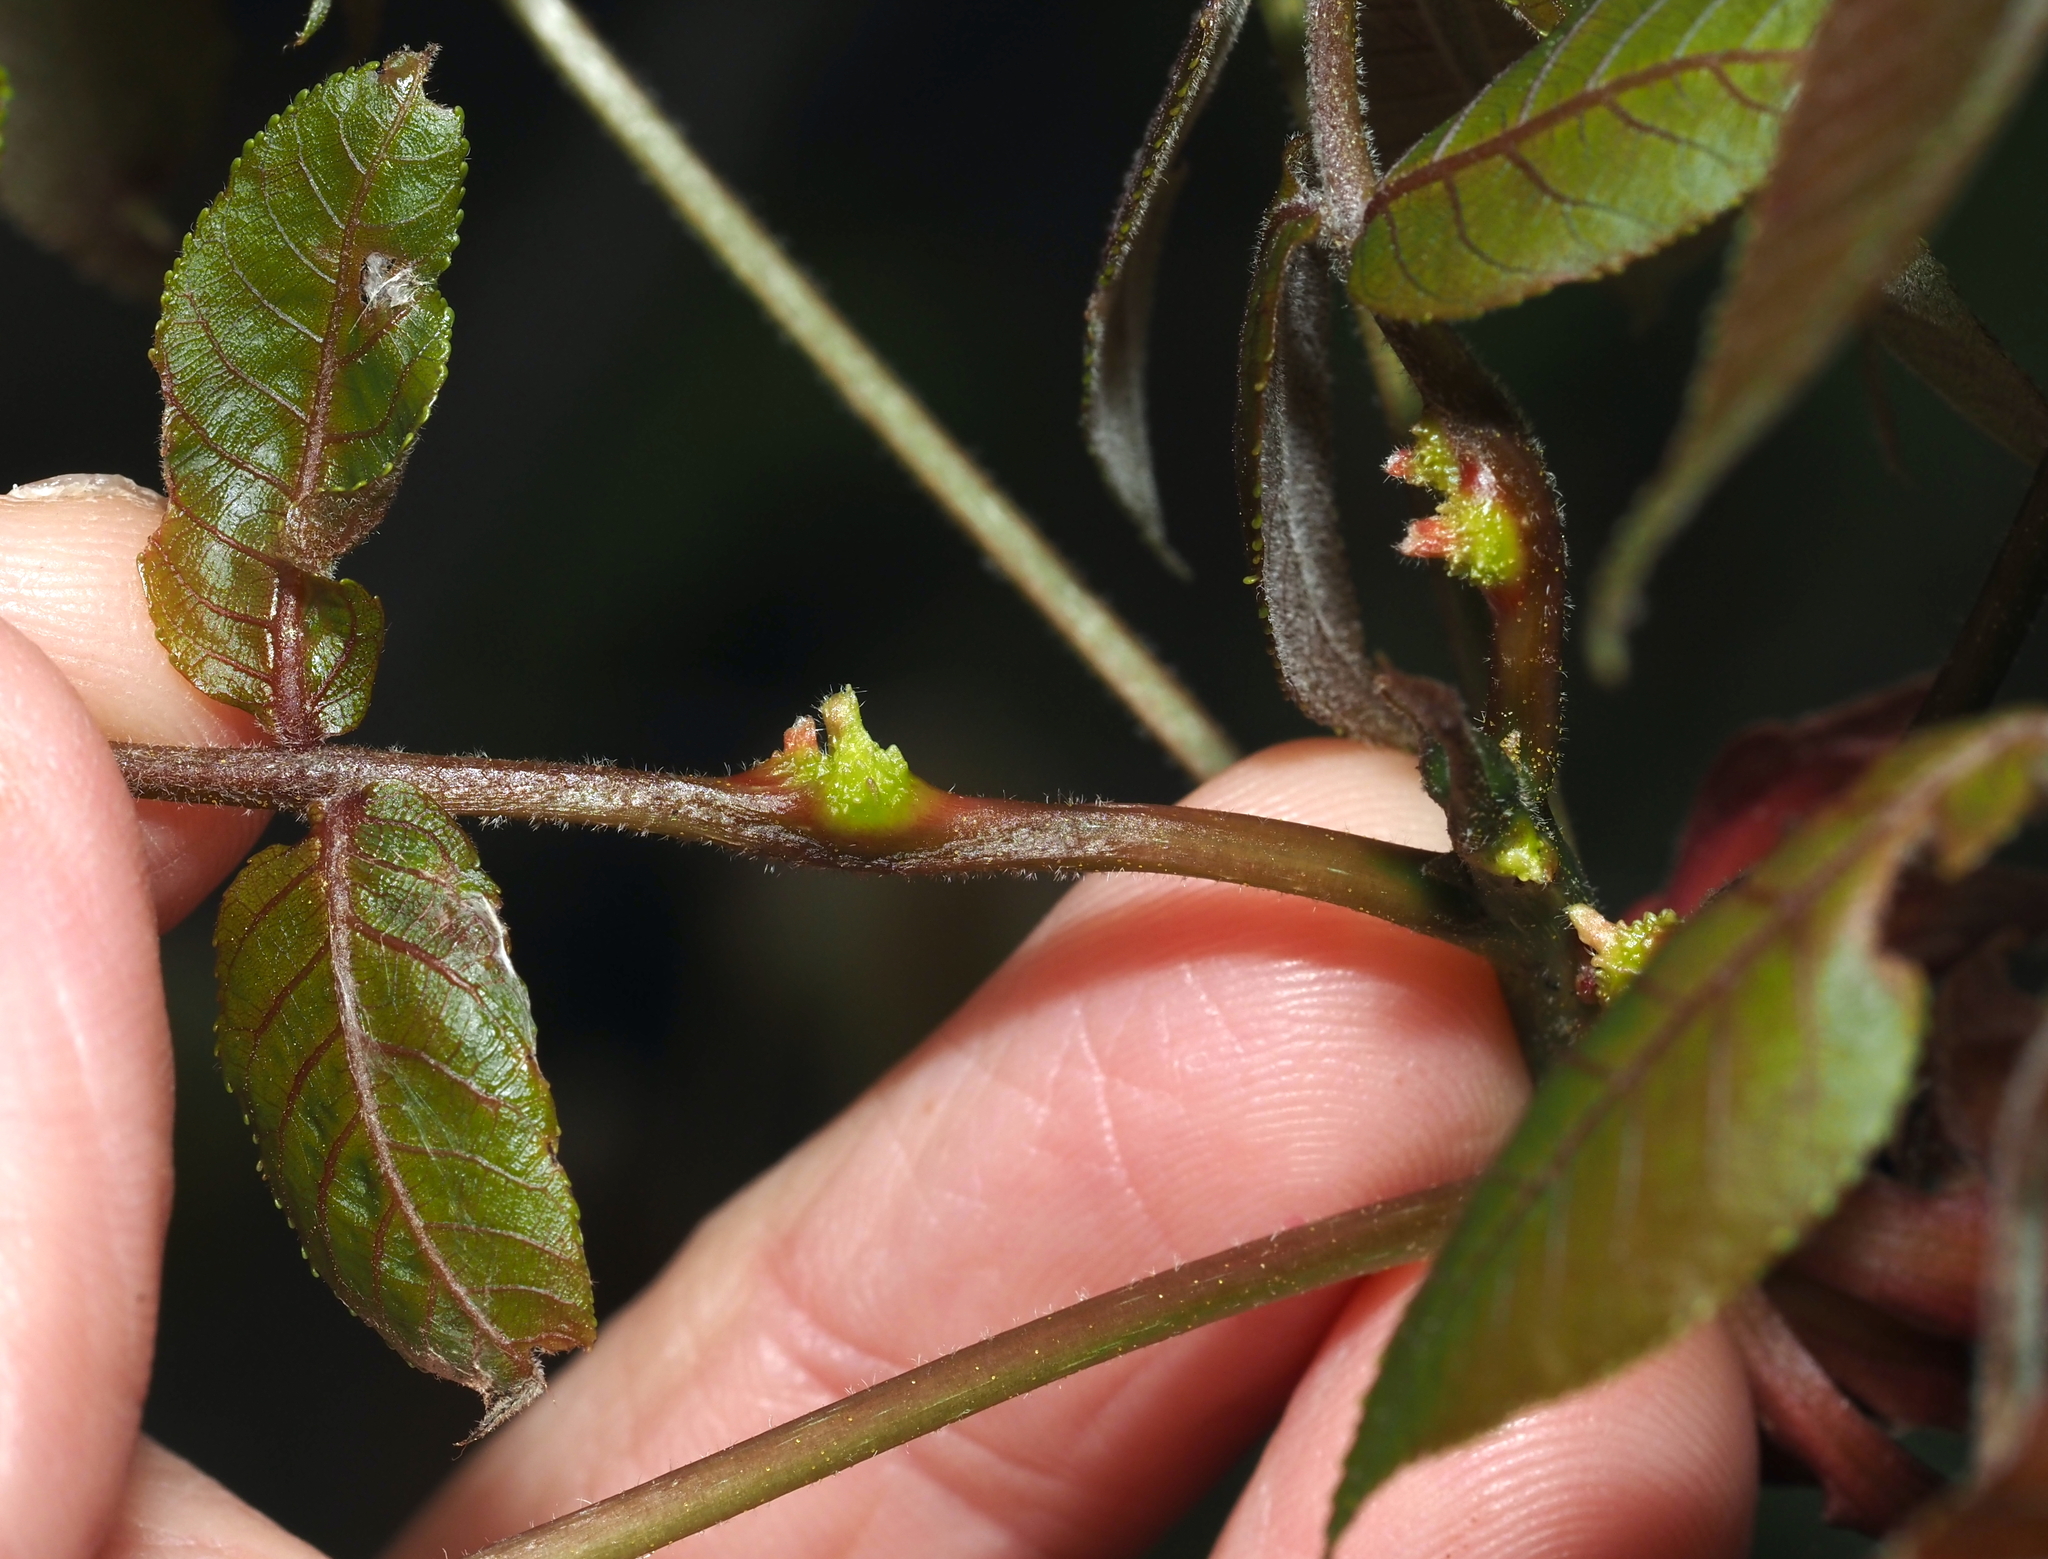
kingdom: Animalia
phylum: Arthropoda
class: Insecta
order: Hemiptera
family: Phylloxeridae
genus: Phylloxera
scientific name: Phylloxera spinosa
